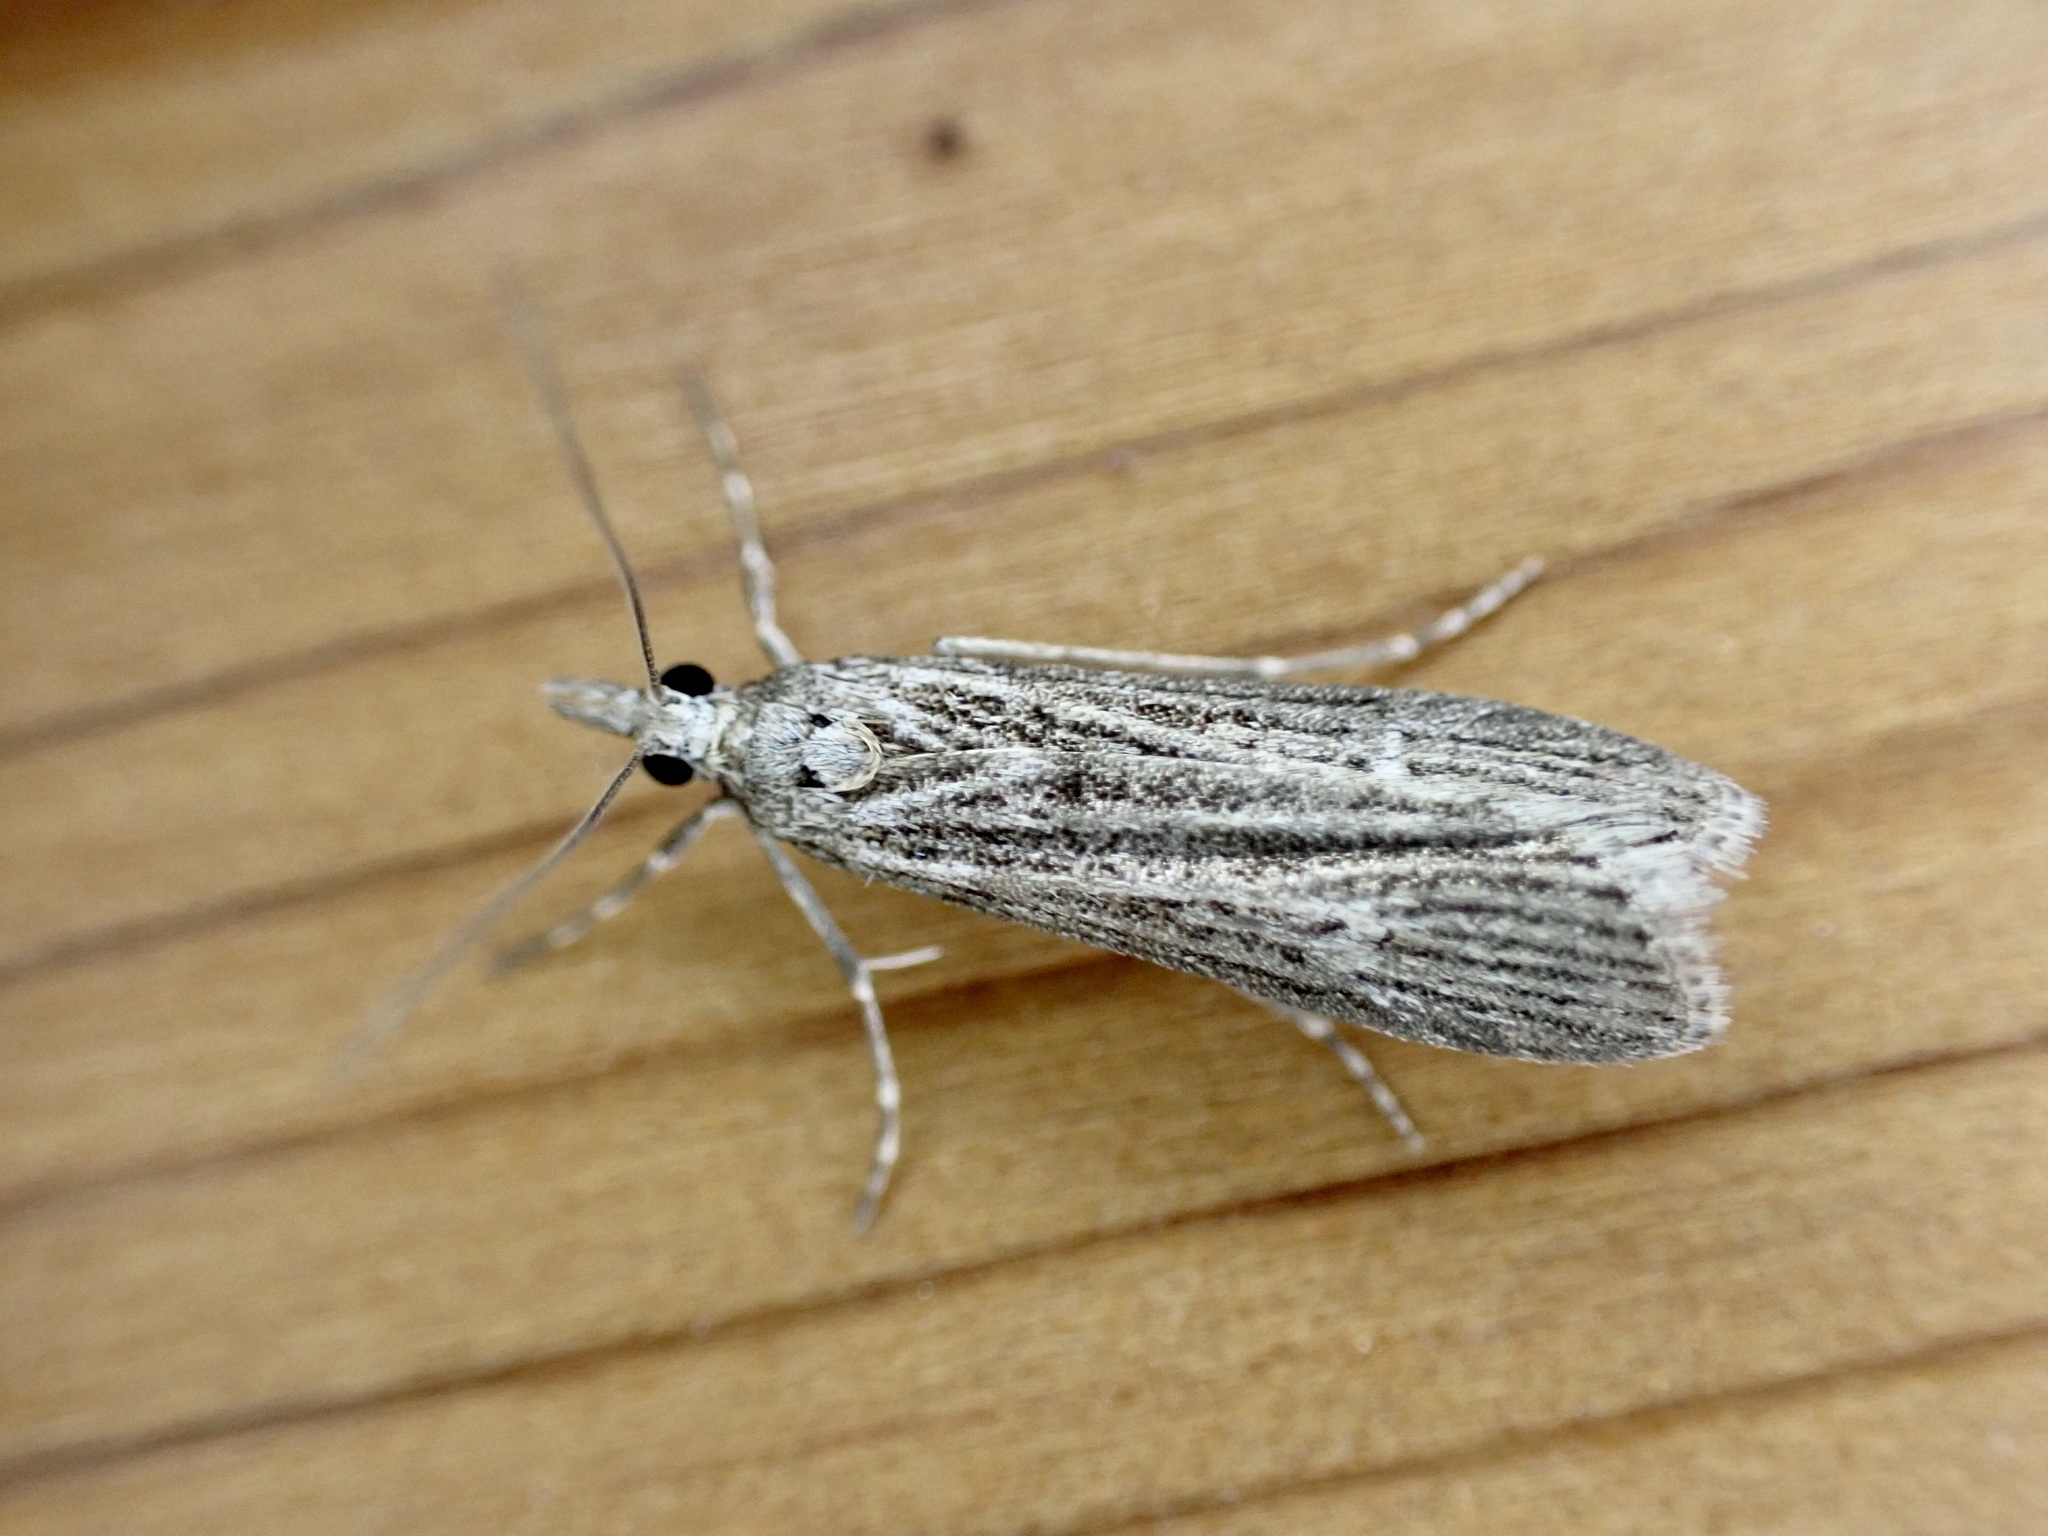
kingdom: Animalia
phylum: Arthropoda
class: Insecta
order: Lepidoptera
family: Crambidae
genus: Eudonia
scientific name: Eudonia atmogramma
